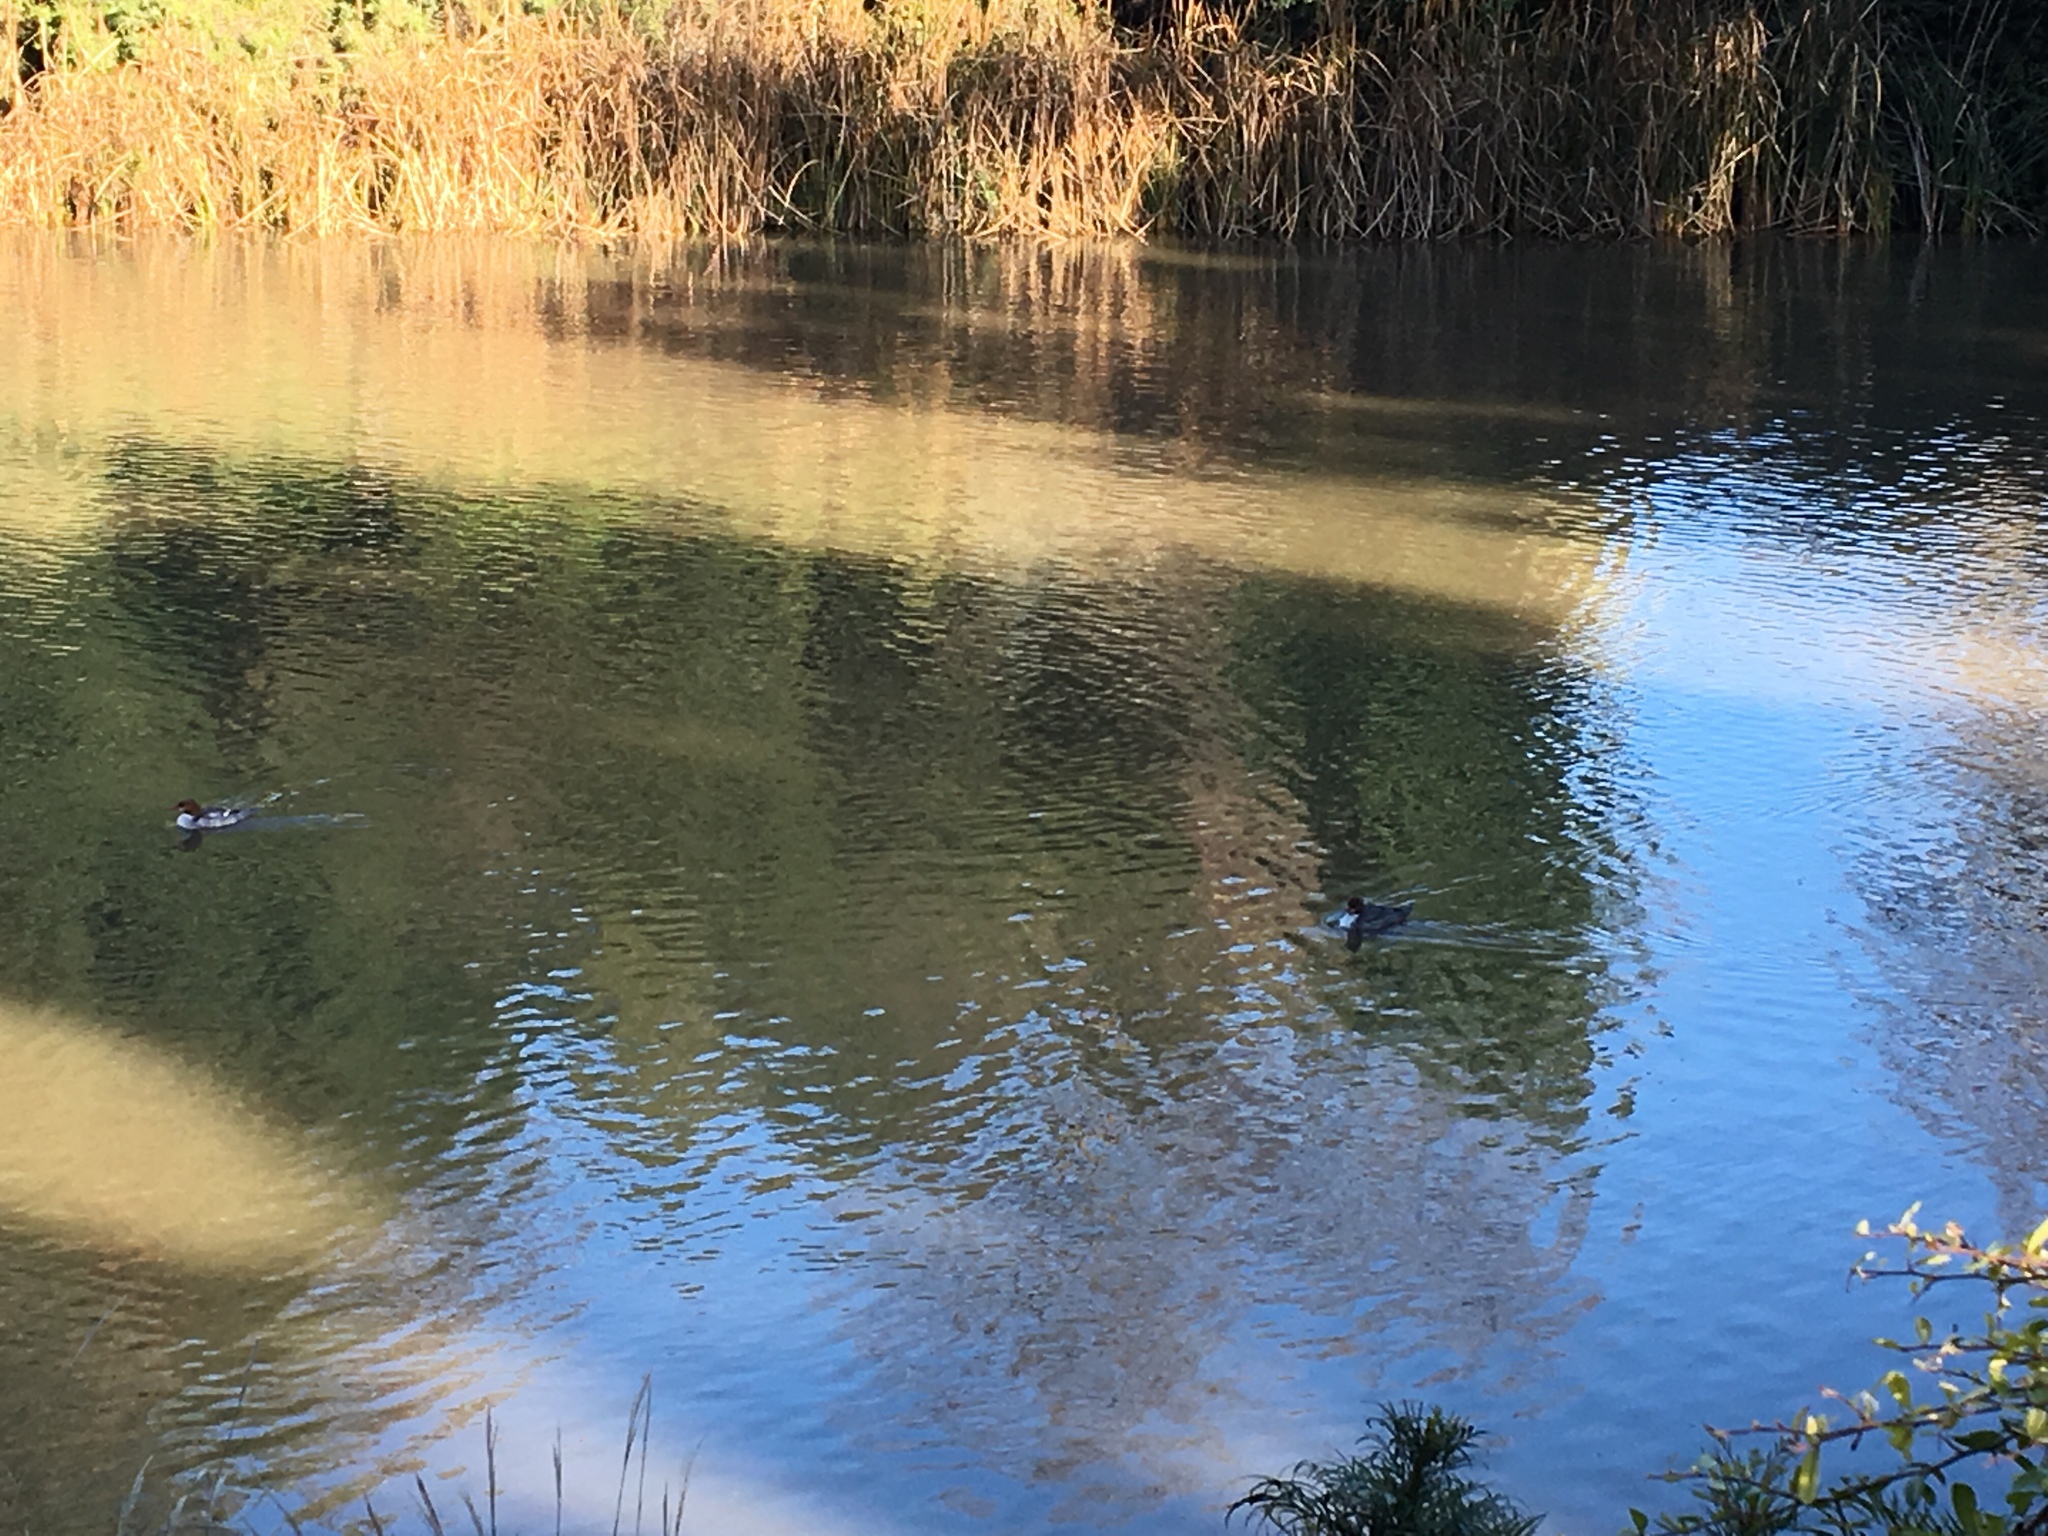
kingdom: Animalia
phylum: Chordata
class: Aves
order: Anseriformes
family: Anatidae
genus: Mergus
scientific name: Mergus merganser
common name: Common merganser
